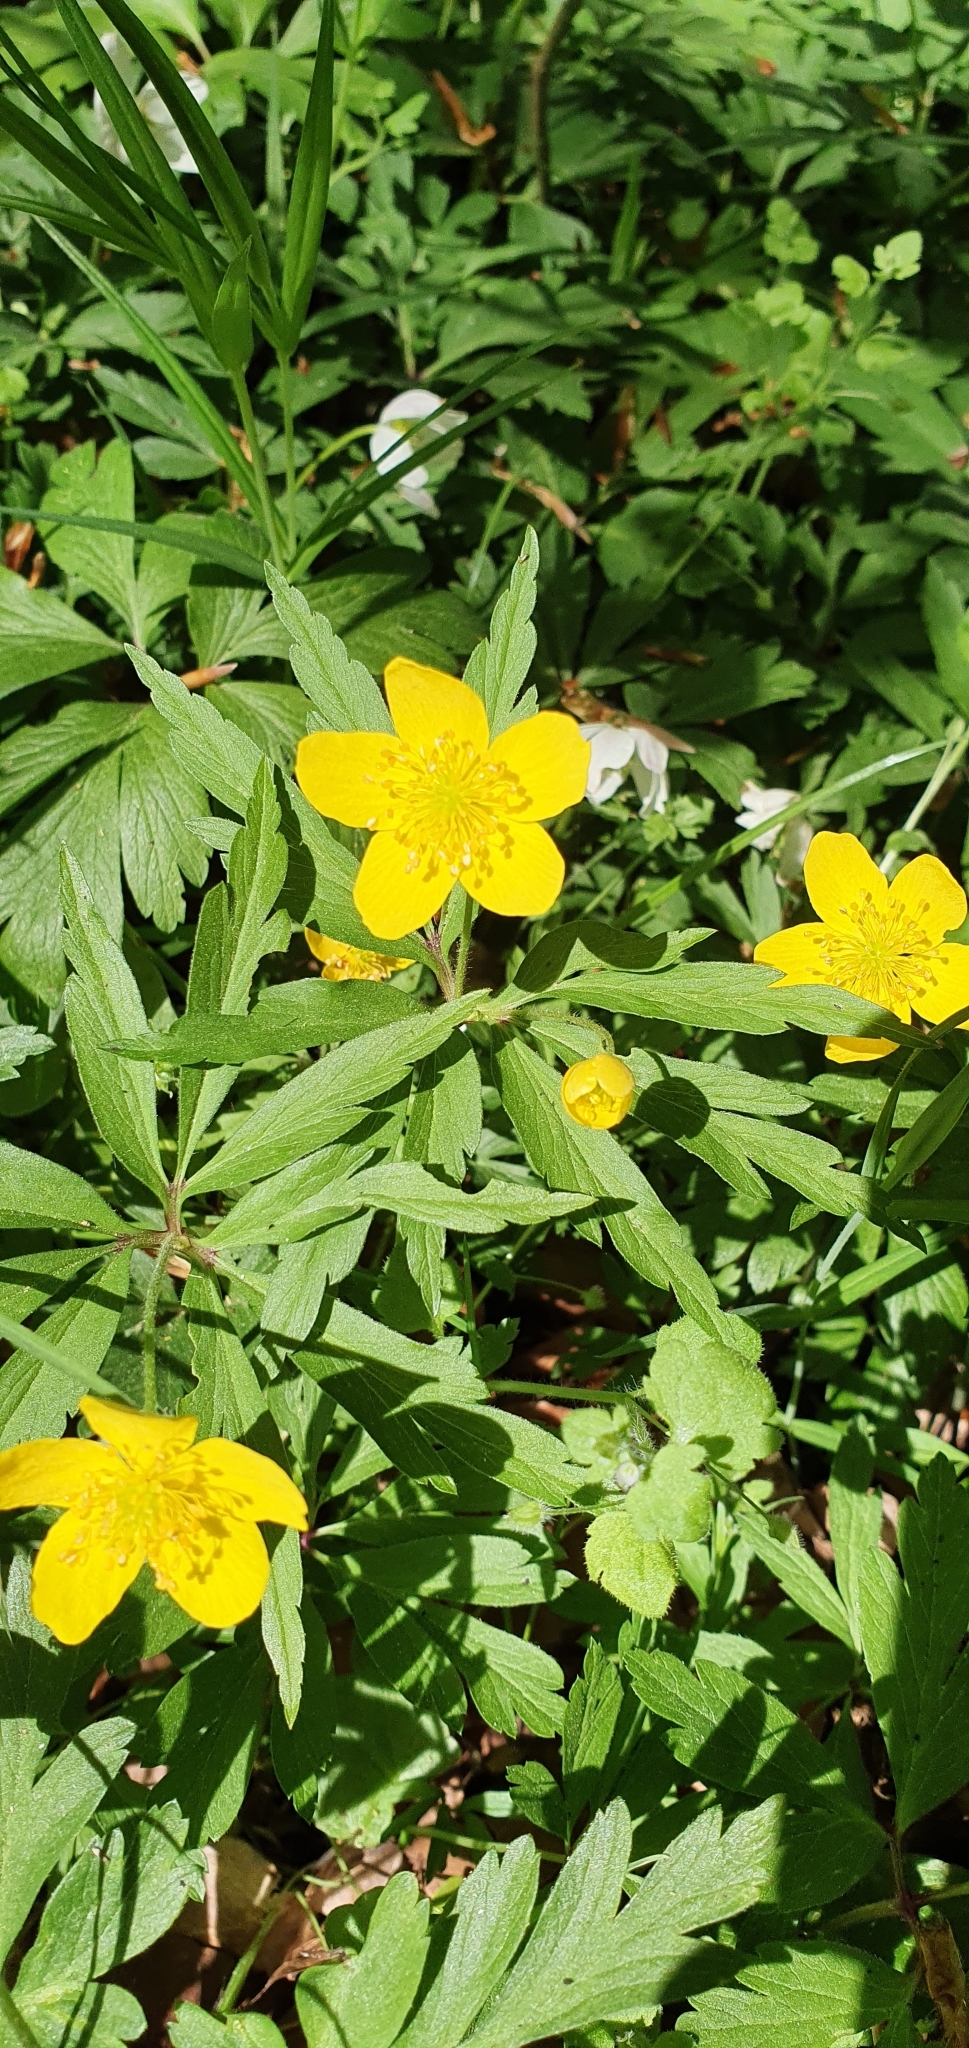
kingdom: Plantae
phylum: Tracheophyta
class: Magnoliopsida
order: Ranunculales
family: Ranunculaceae
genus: Anemone
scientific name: Anemone ranunculoides
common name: Yellow anemone
